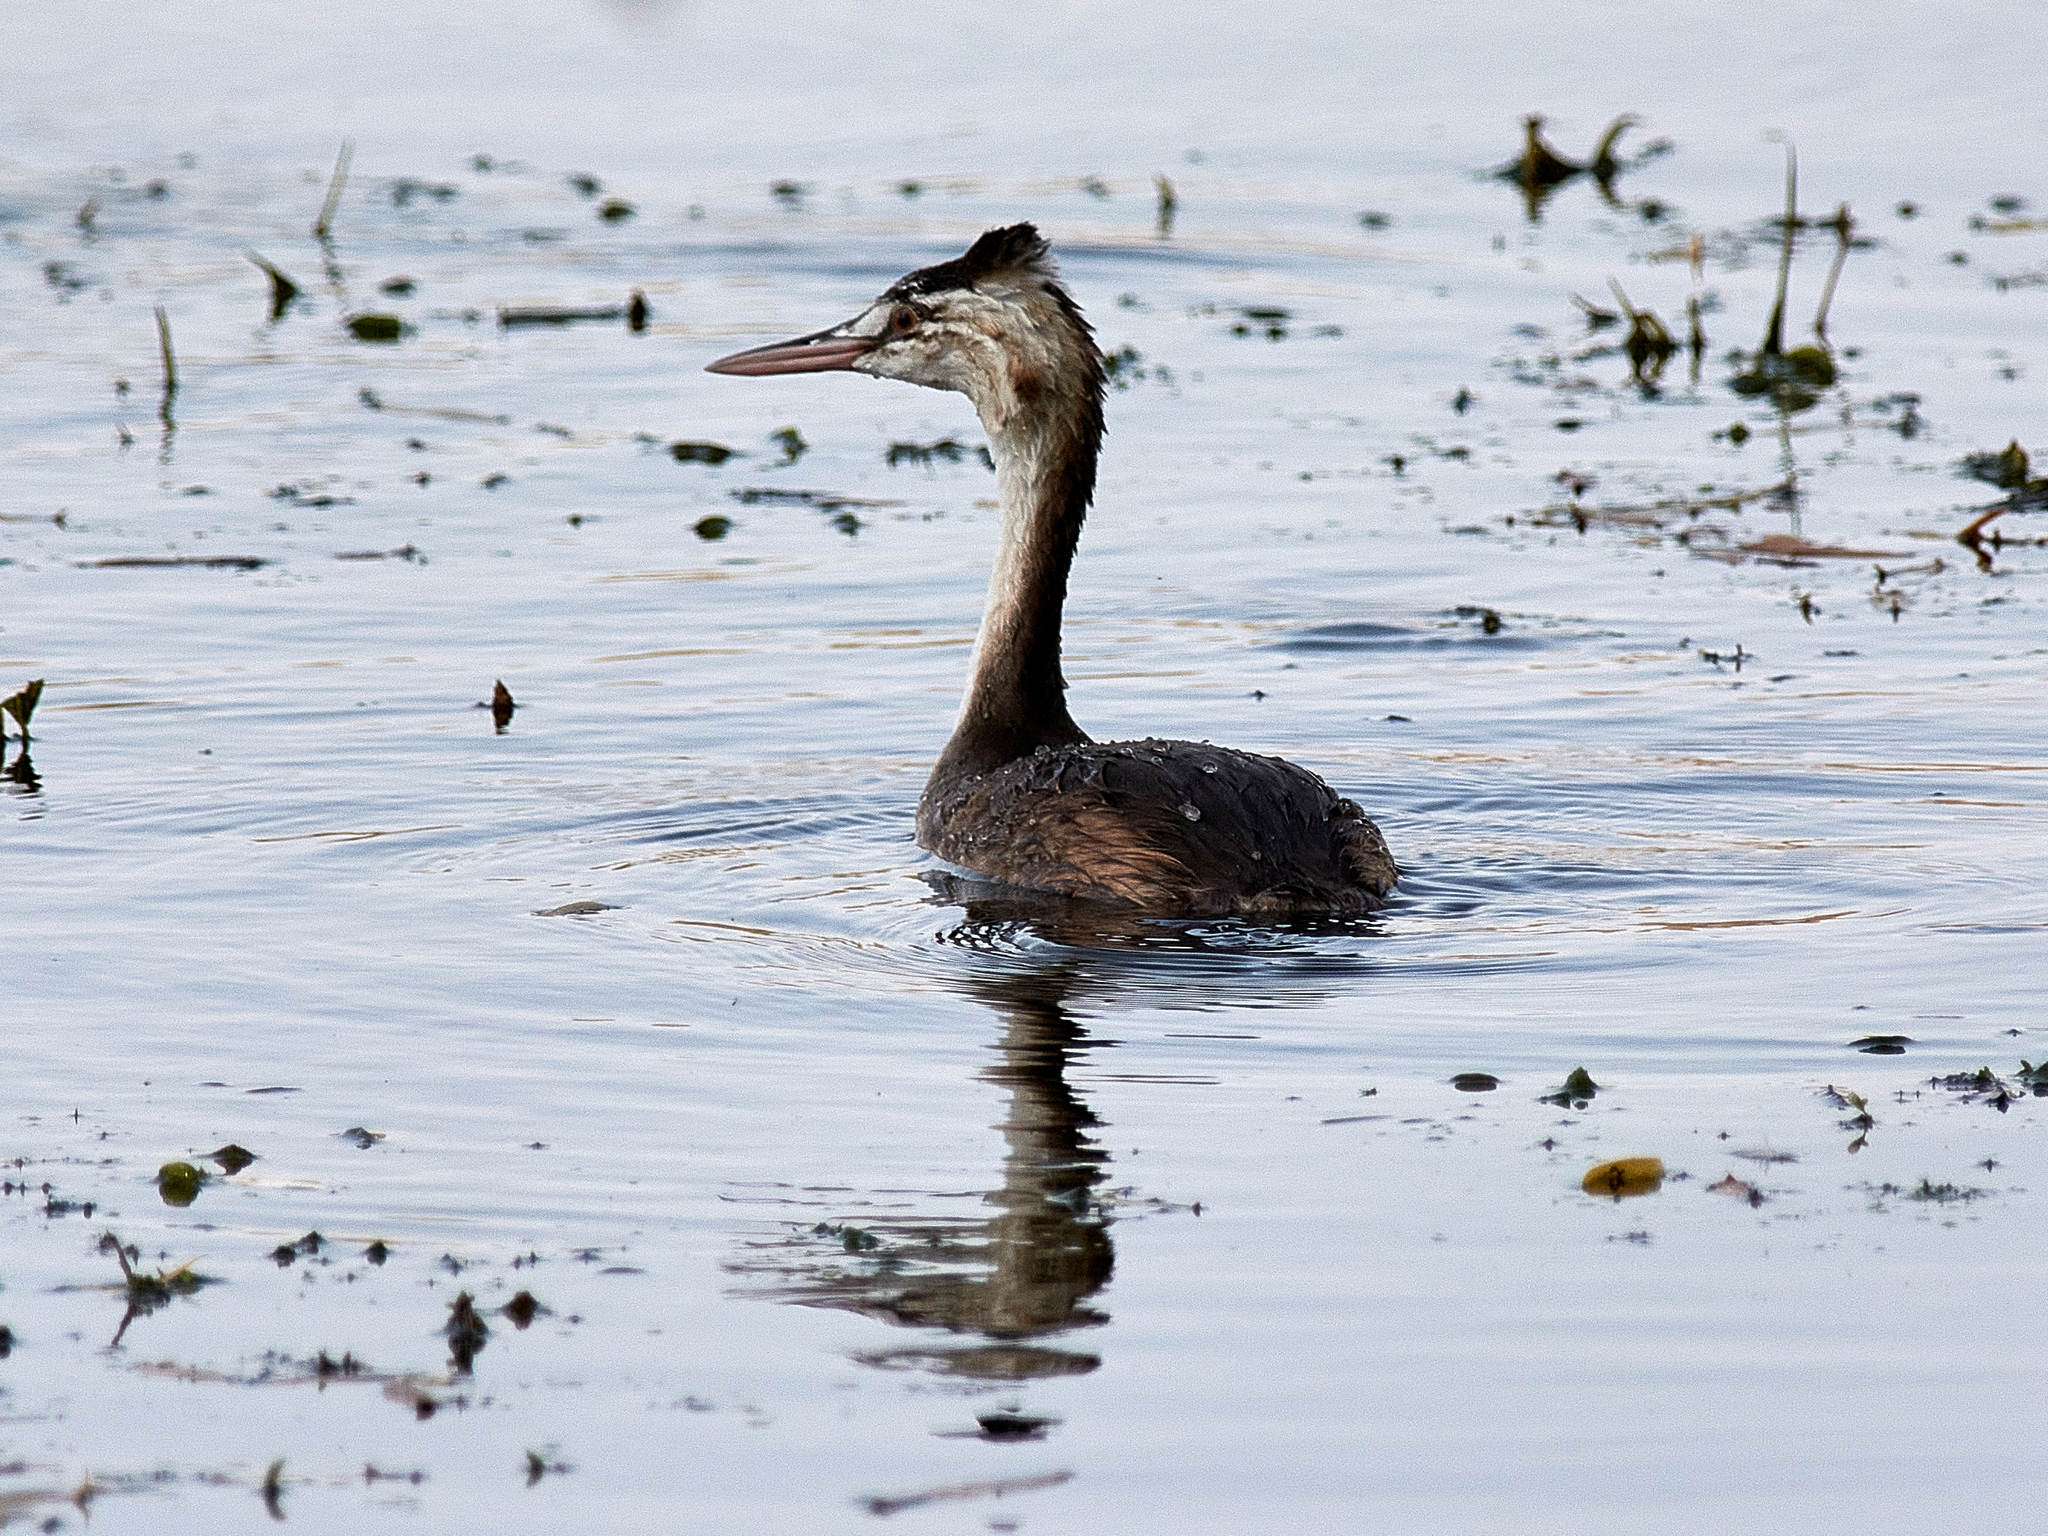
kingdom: Animalia
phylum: Chordata
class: Aves
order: Podicipediformes
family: Podicipedidae
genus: Podiceps
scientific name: Podiceps cristatus
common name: Great crested grebe
